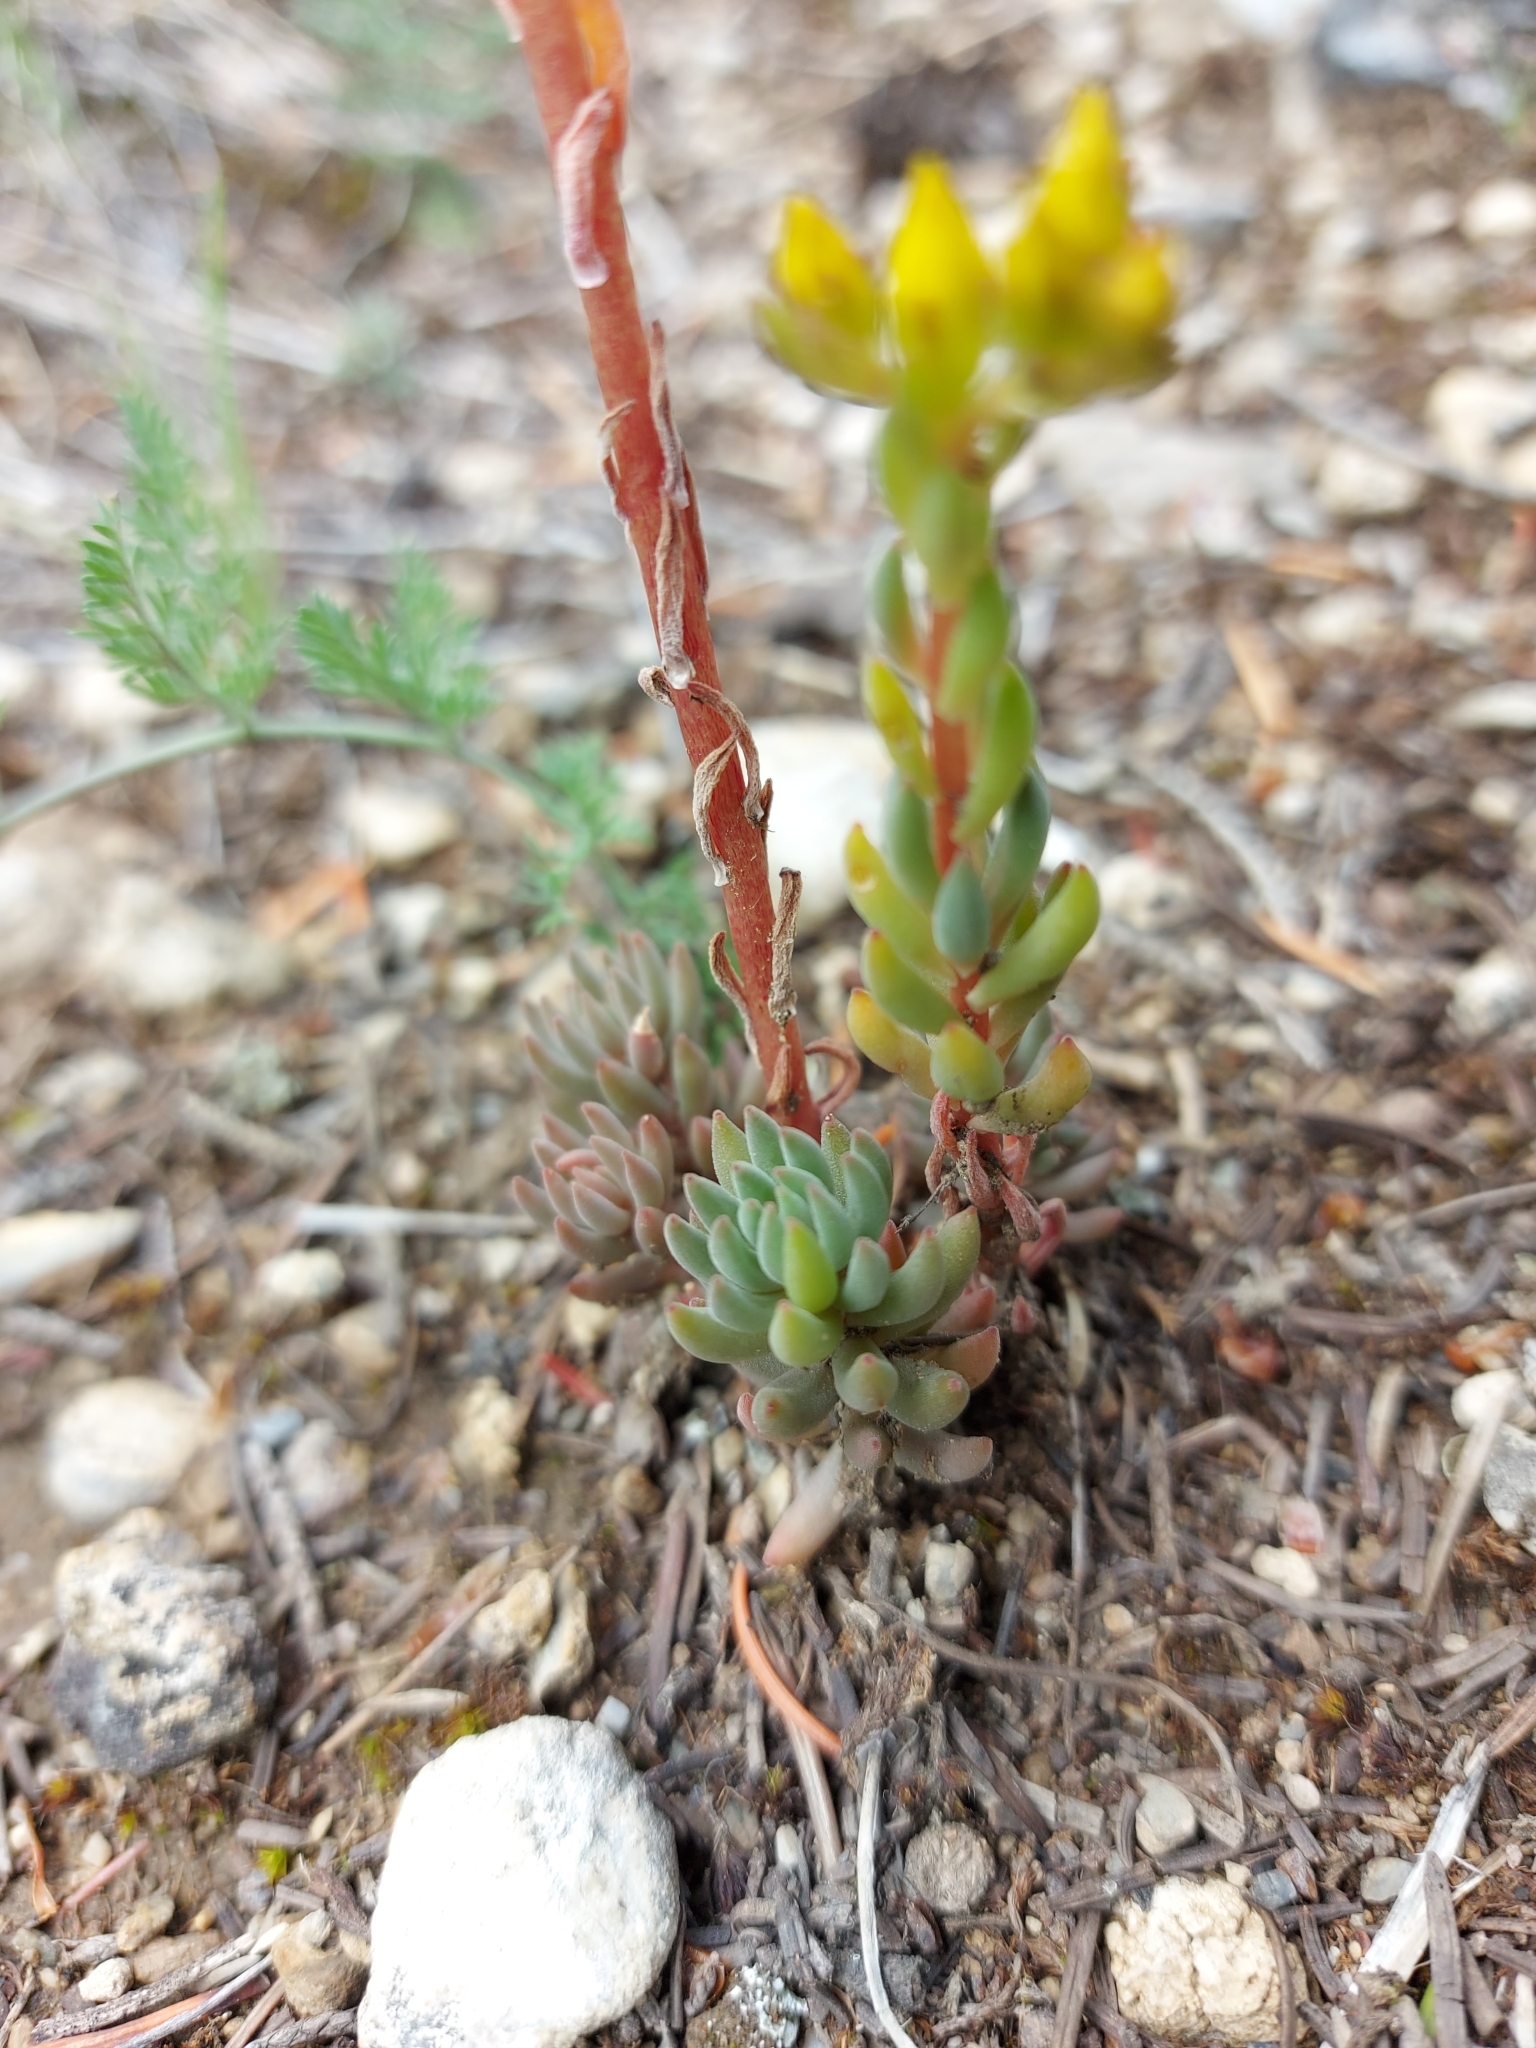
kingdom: Plantae
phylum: Tracheophyta
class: Magnoliopsida
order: Saxifragales
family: Crassulaceae
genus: Sedum
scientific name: Sedum lanceolatum
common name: Common stonecrop
